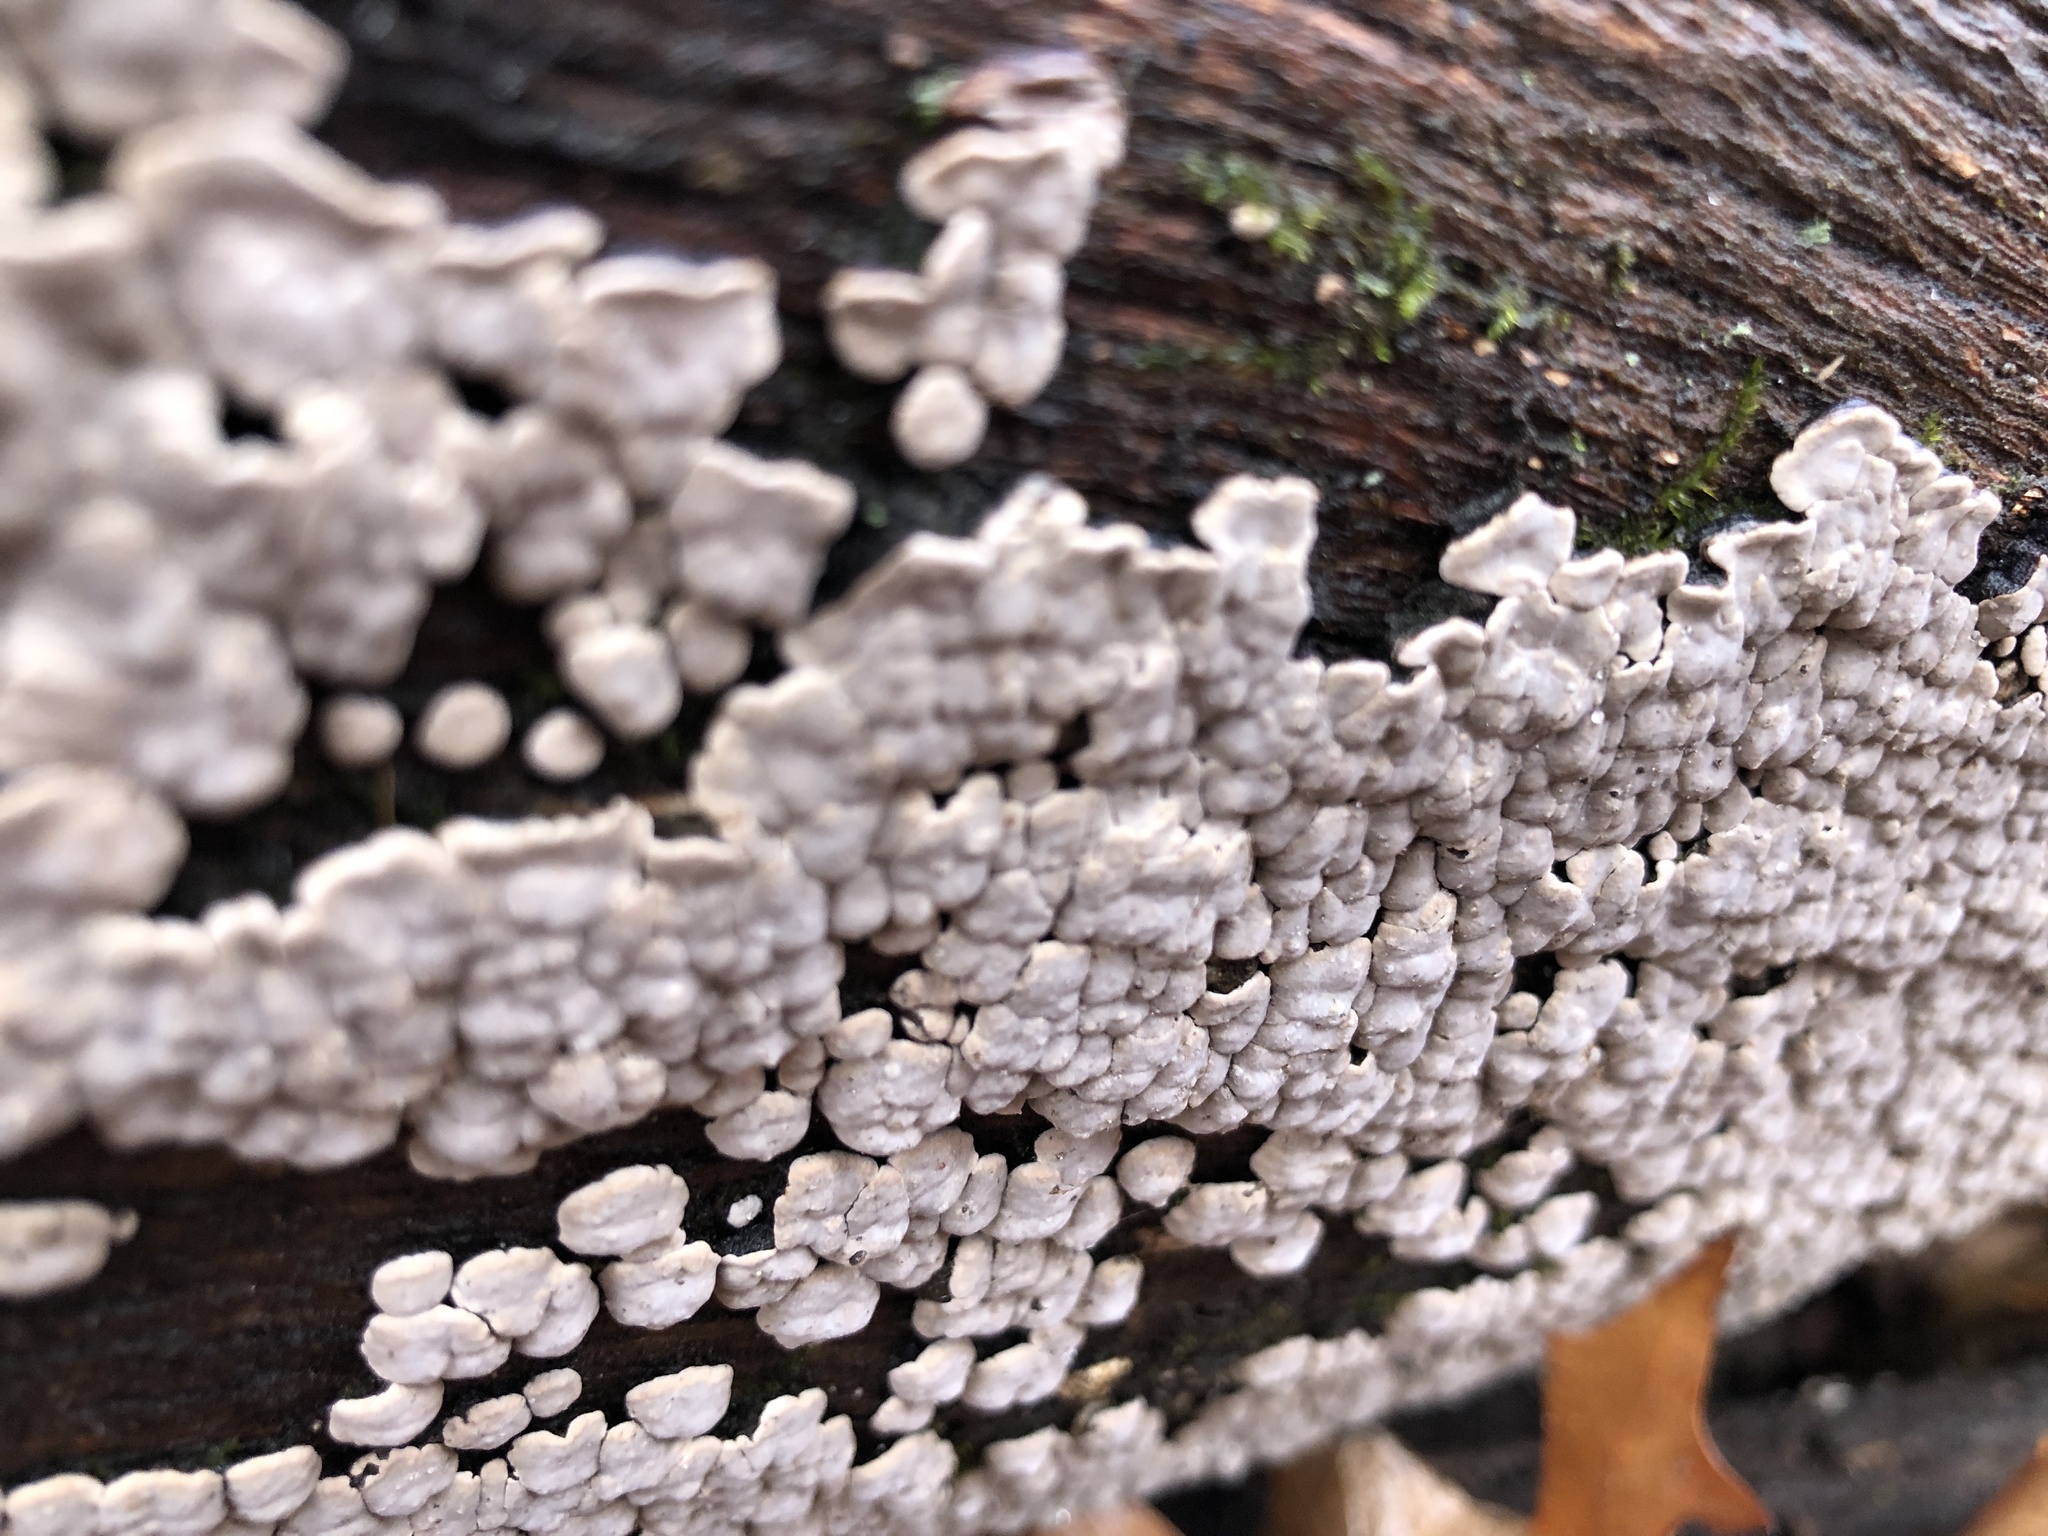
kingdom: Fungi
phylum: Basidiomycota
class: Agaricomycetes
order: Russulales
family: Stereaceae
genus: Xylobolus
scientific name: Xylobolus frustulatus
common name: Ceramic parchment
